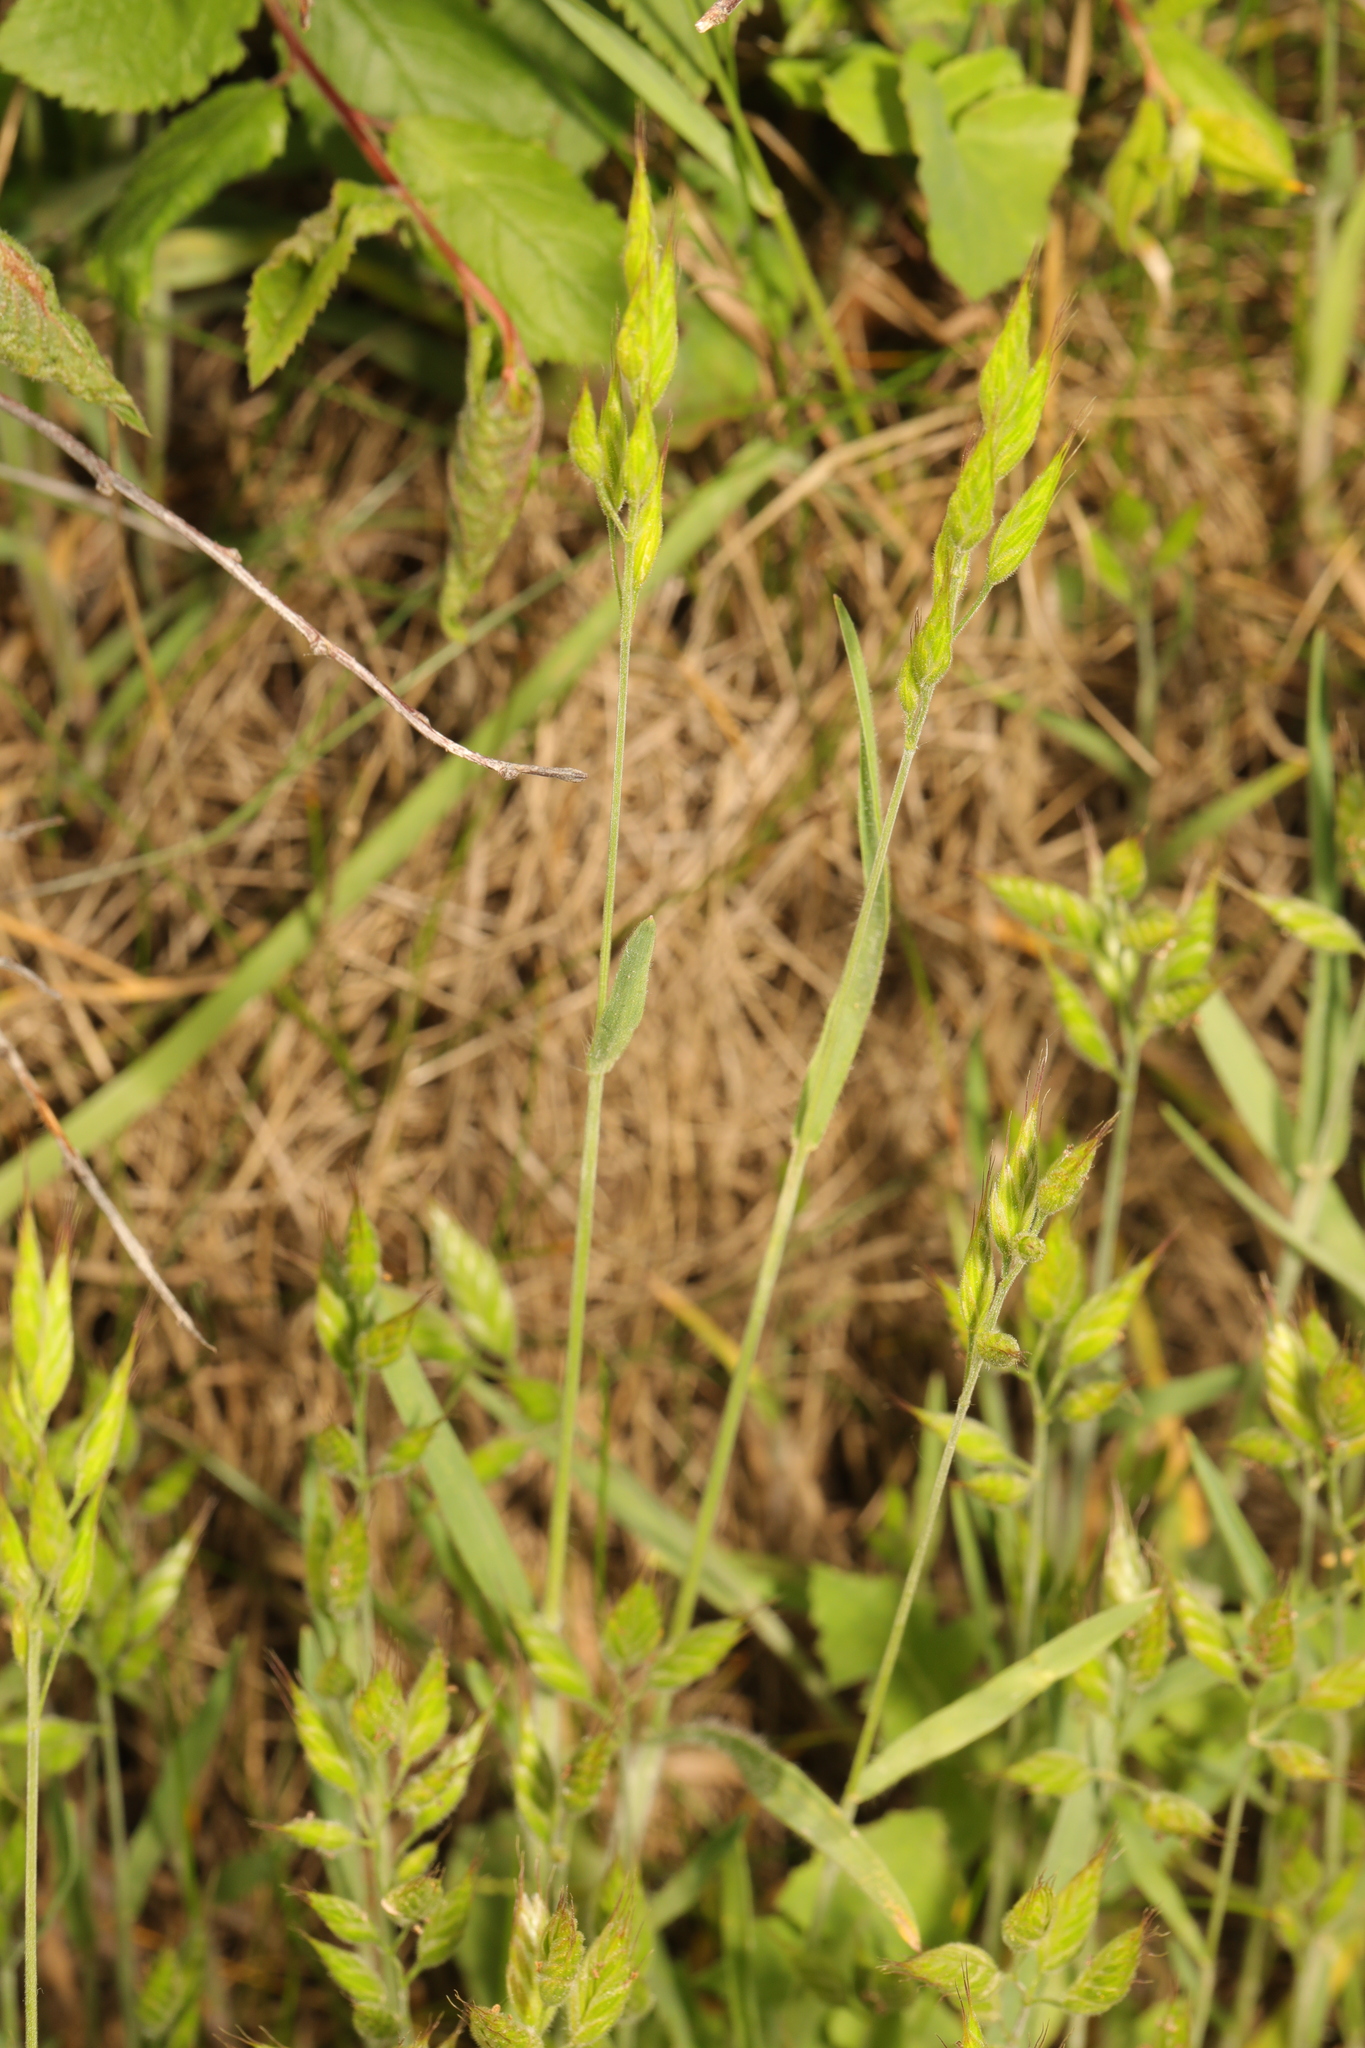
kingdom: Plantae
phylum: Tracheophyta
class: Liliopsida
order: Poales
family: Poaceae
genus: Bromus
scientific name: Bromus hordeaceus
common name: Soft brome
